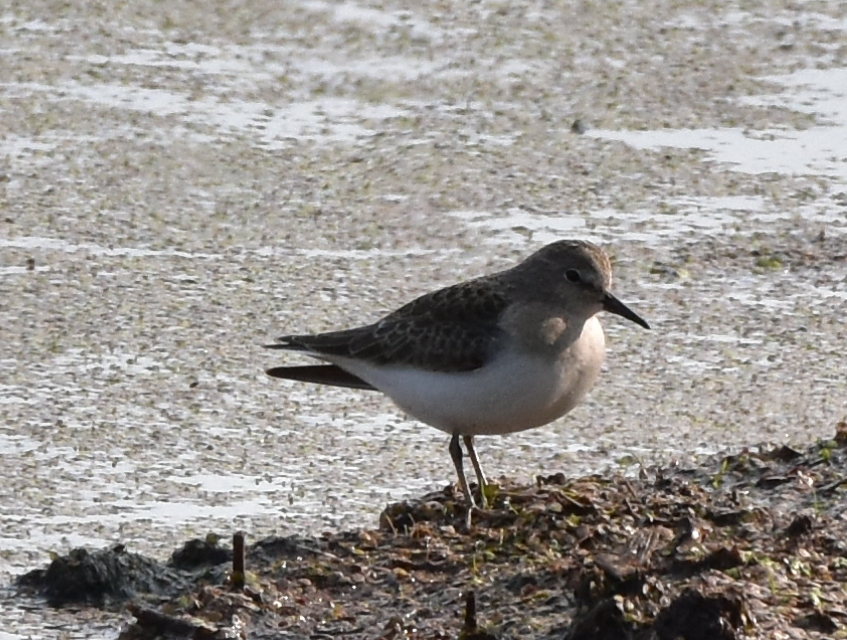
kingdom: Animalia
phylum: Chordata
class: Aves
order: Charadriiformes
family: Scolopacidae
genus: Calidris
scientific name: Calidris temminckii
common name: Temminck's stint
